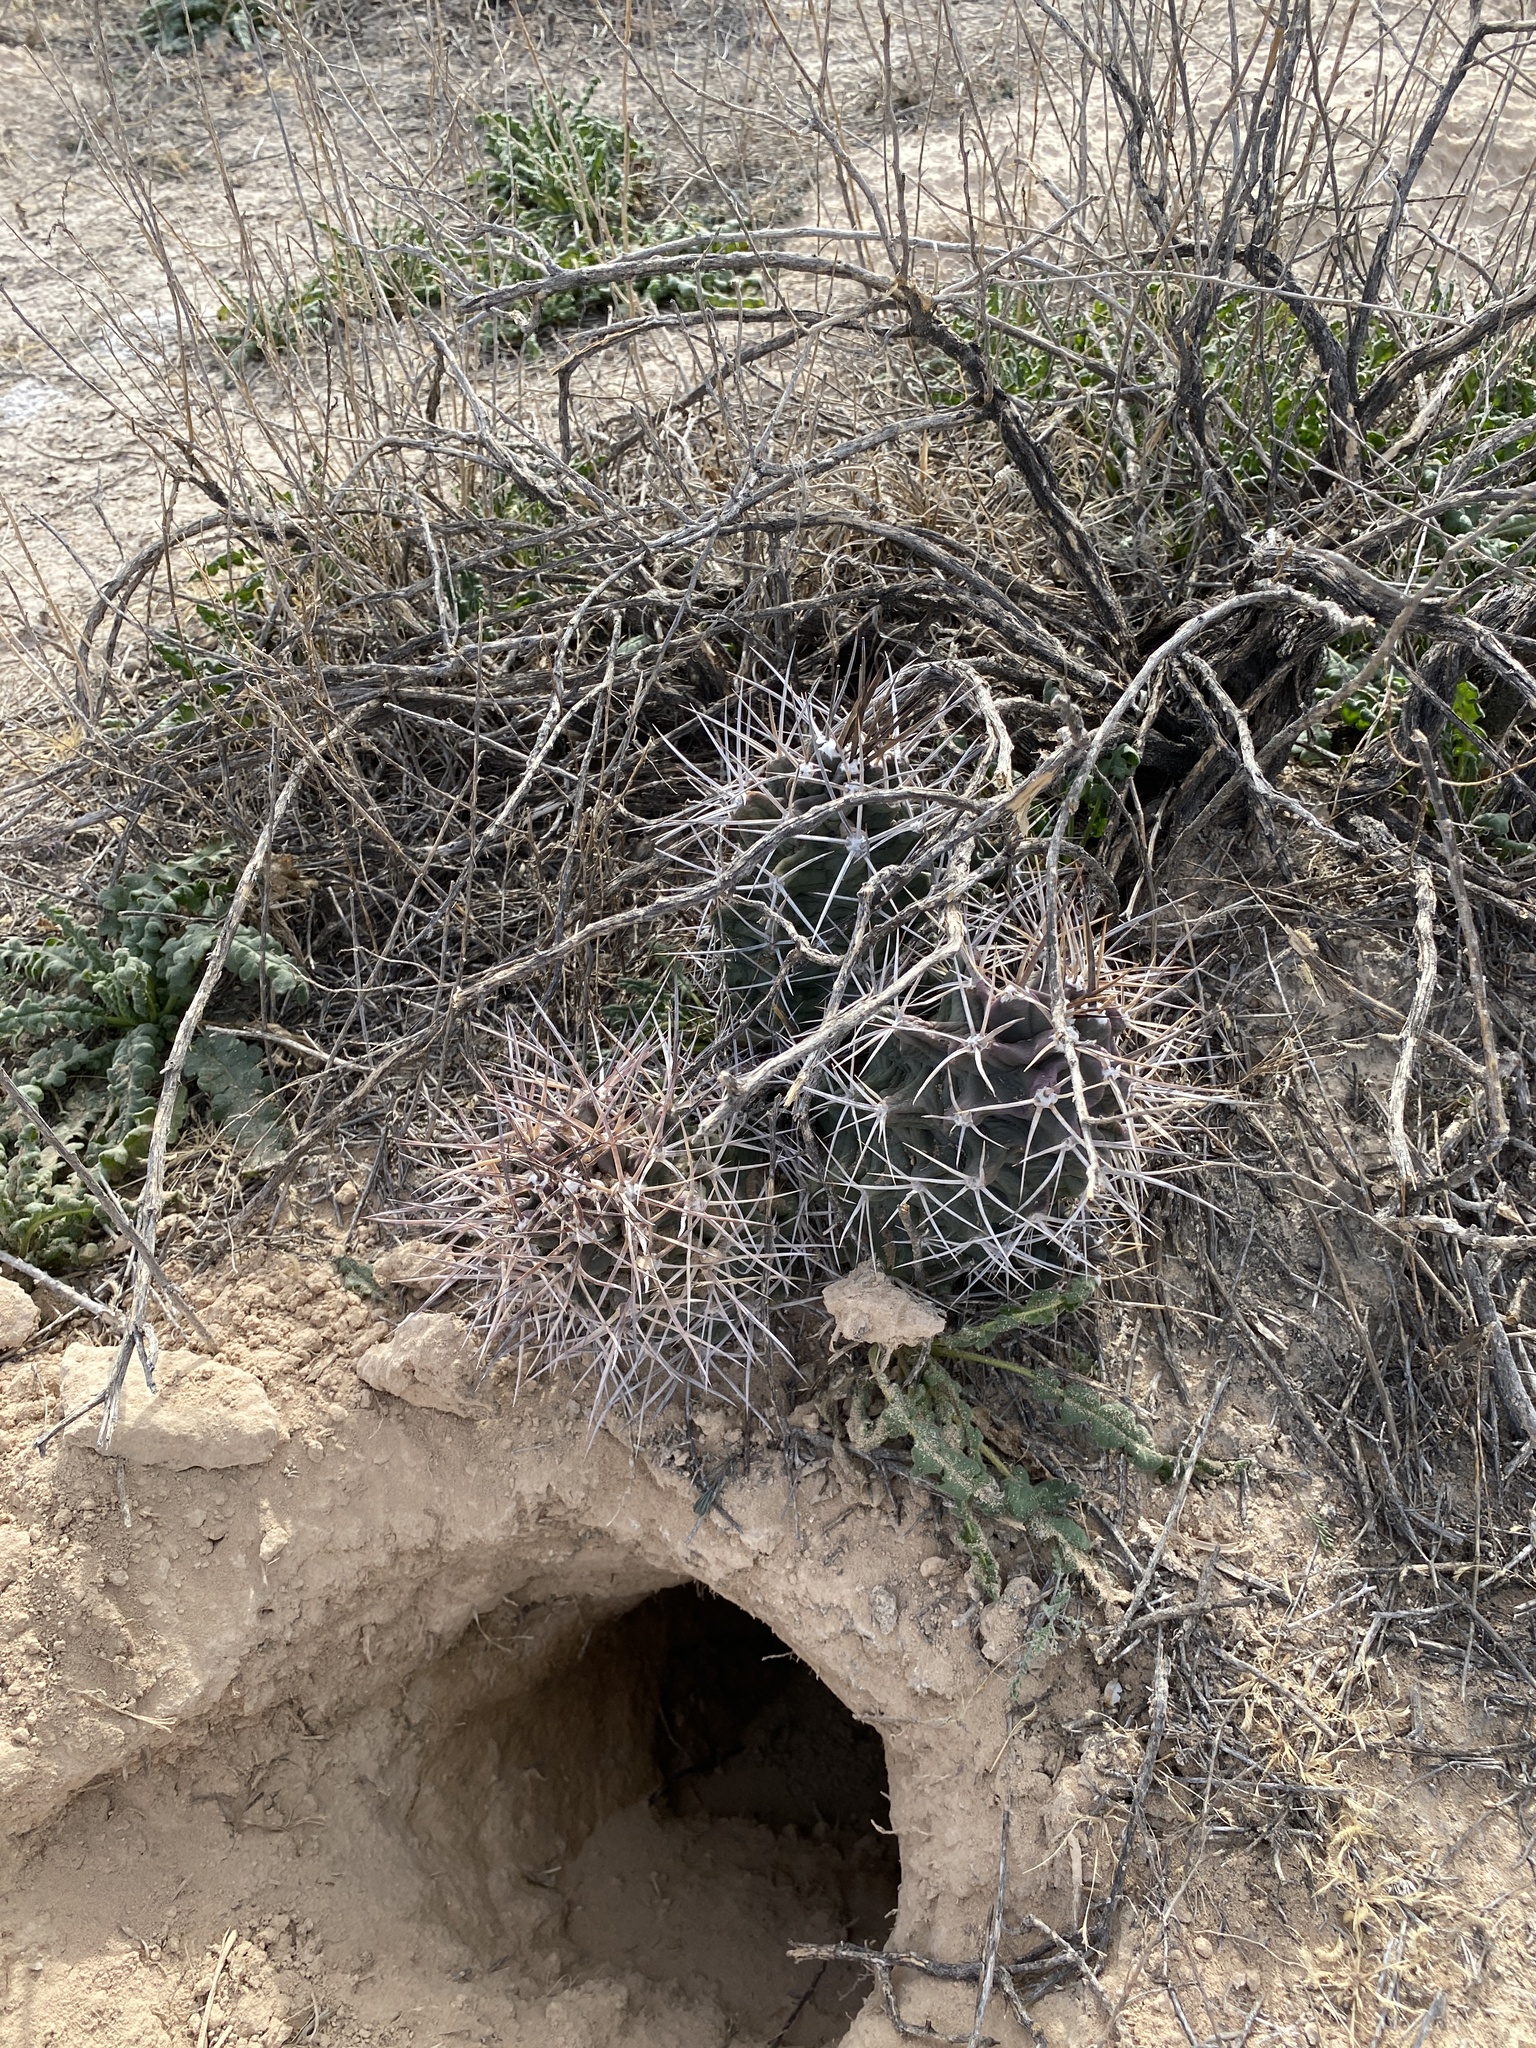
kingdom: Plantae
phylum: Tracheophyta
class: Magnoliopsida
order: Caryophyllales
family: Cactaceae
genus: Echinocereus
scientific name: Echinocereus triglochidiatus
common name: Claretcup hedgehog
